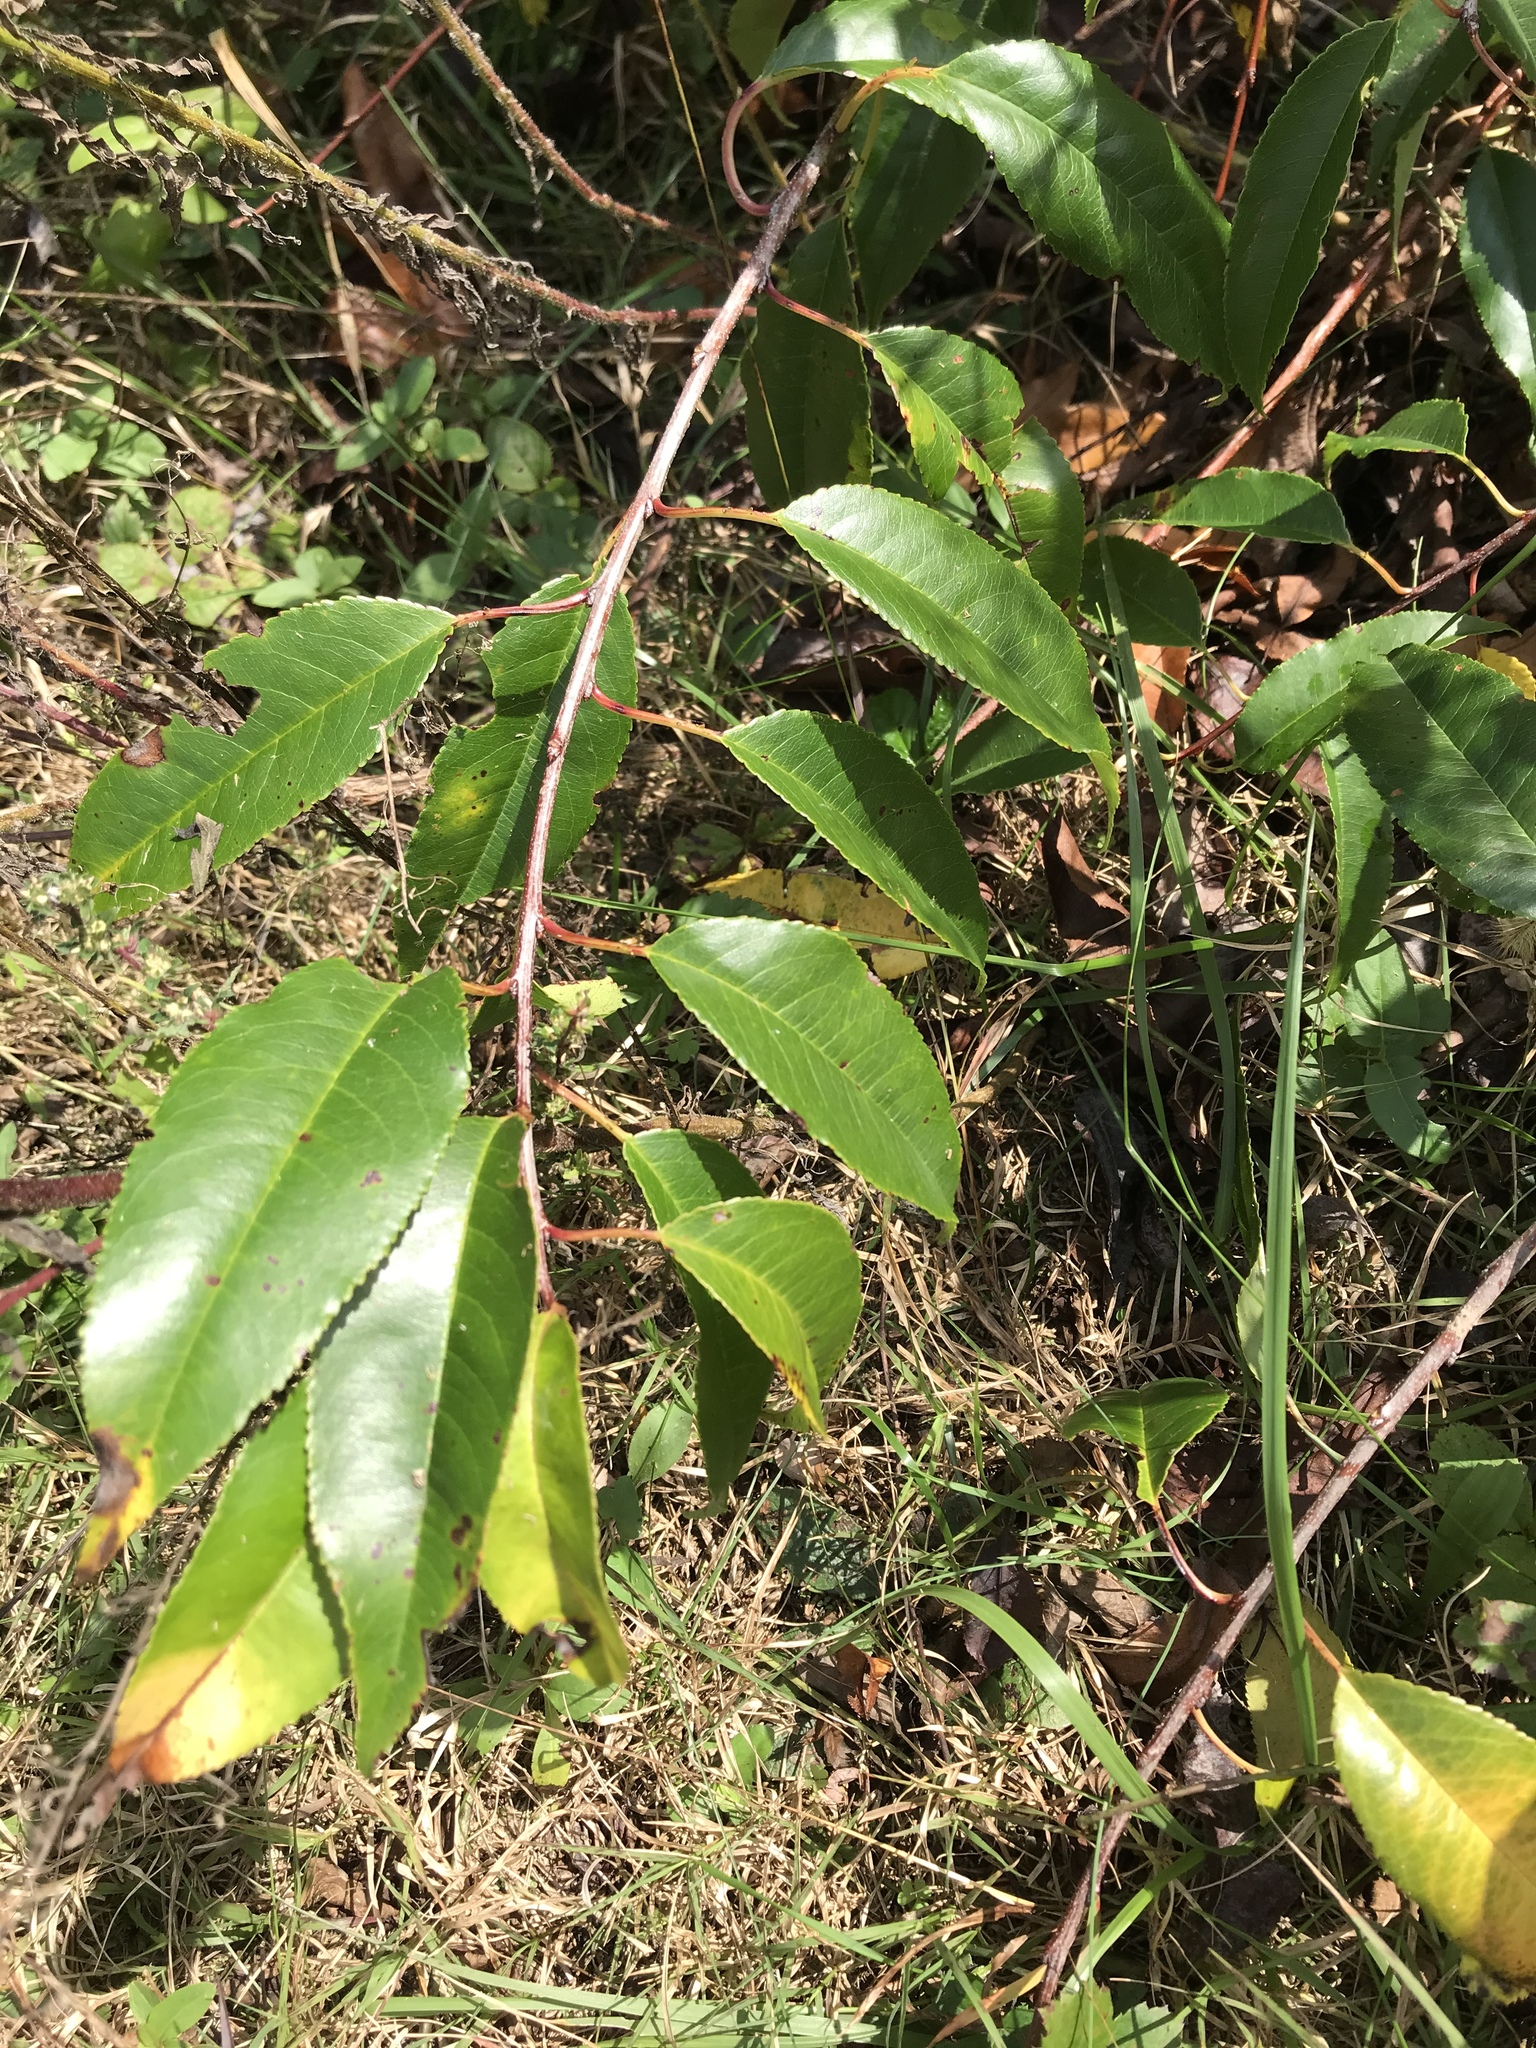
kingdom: Plantae
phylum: Tracheophyta
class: Magnoliopsida
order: Rosales
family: Rosaceae
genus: Prunus
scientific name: Prunus serotina
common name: Black cherry
